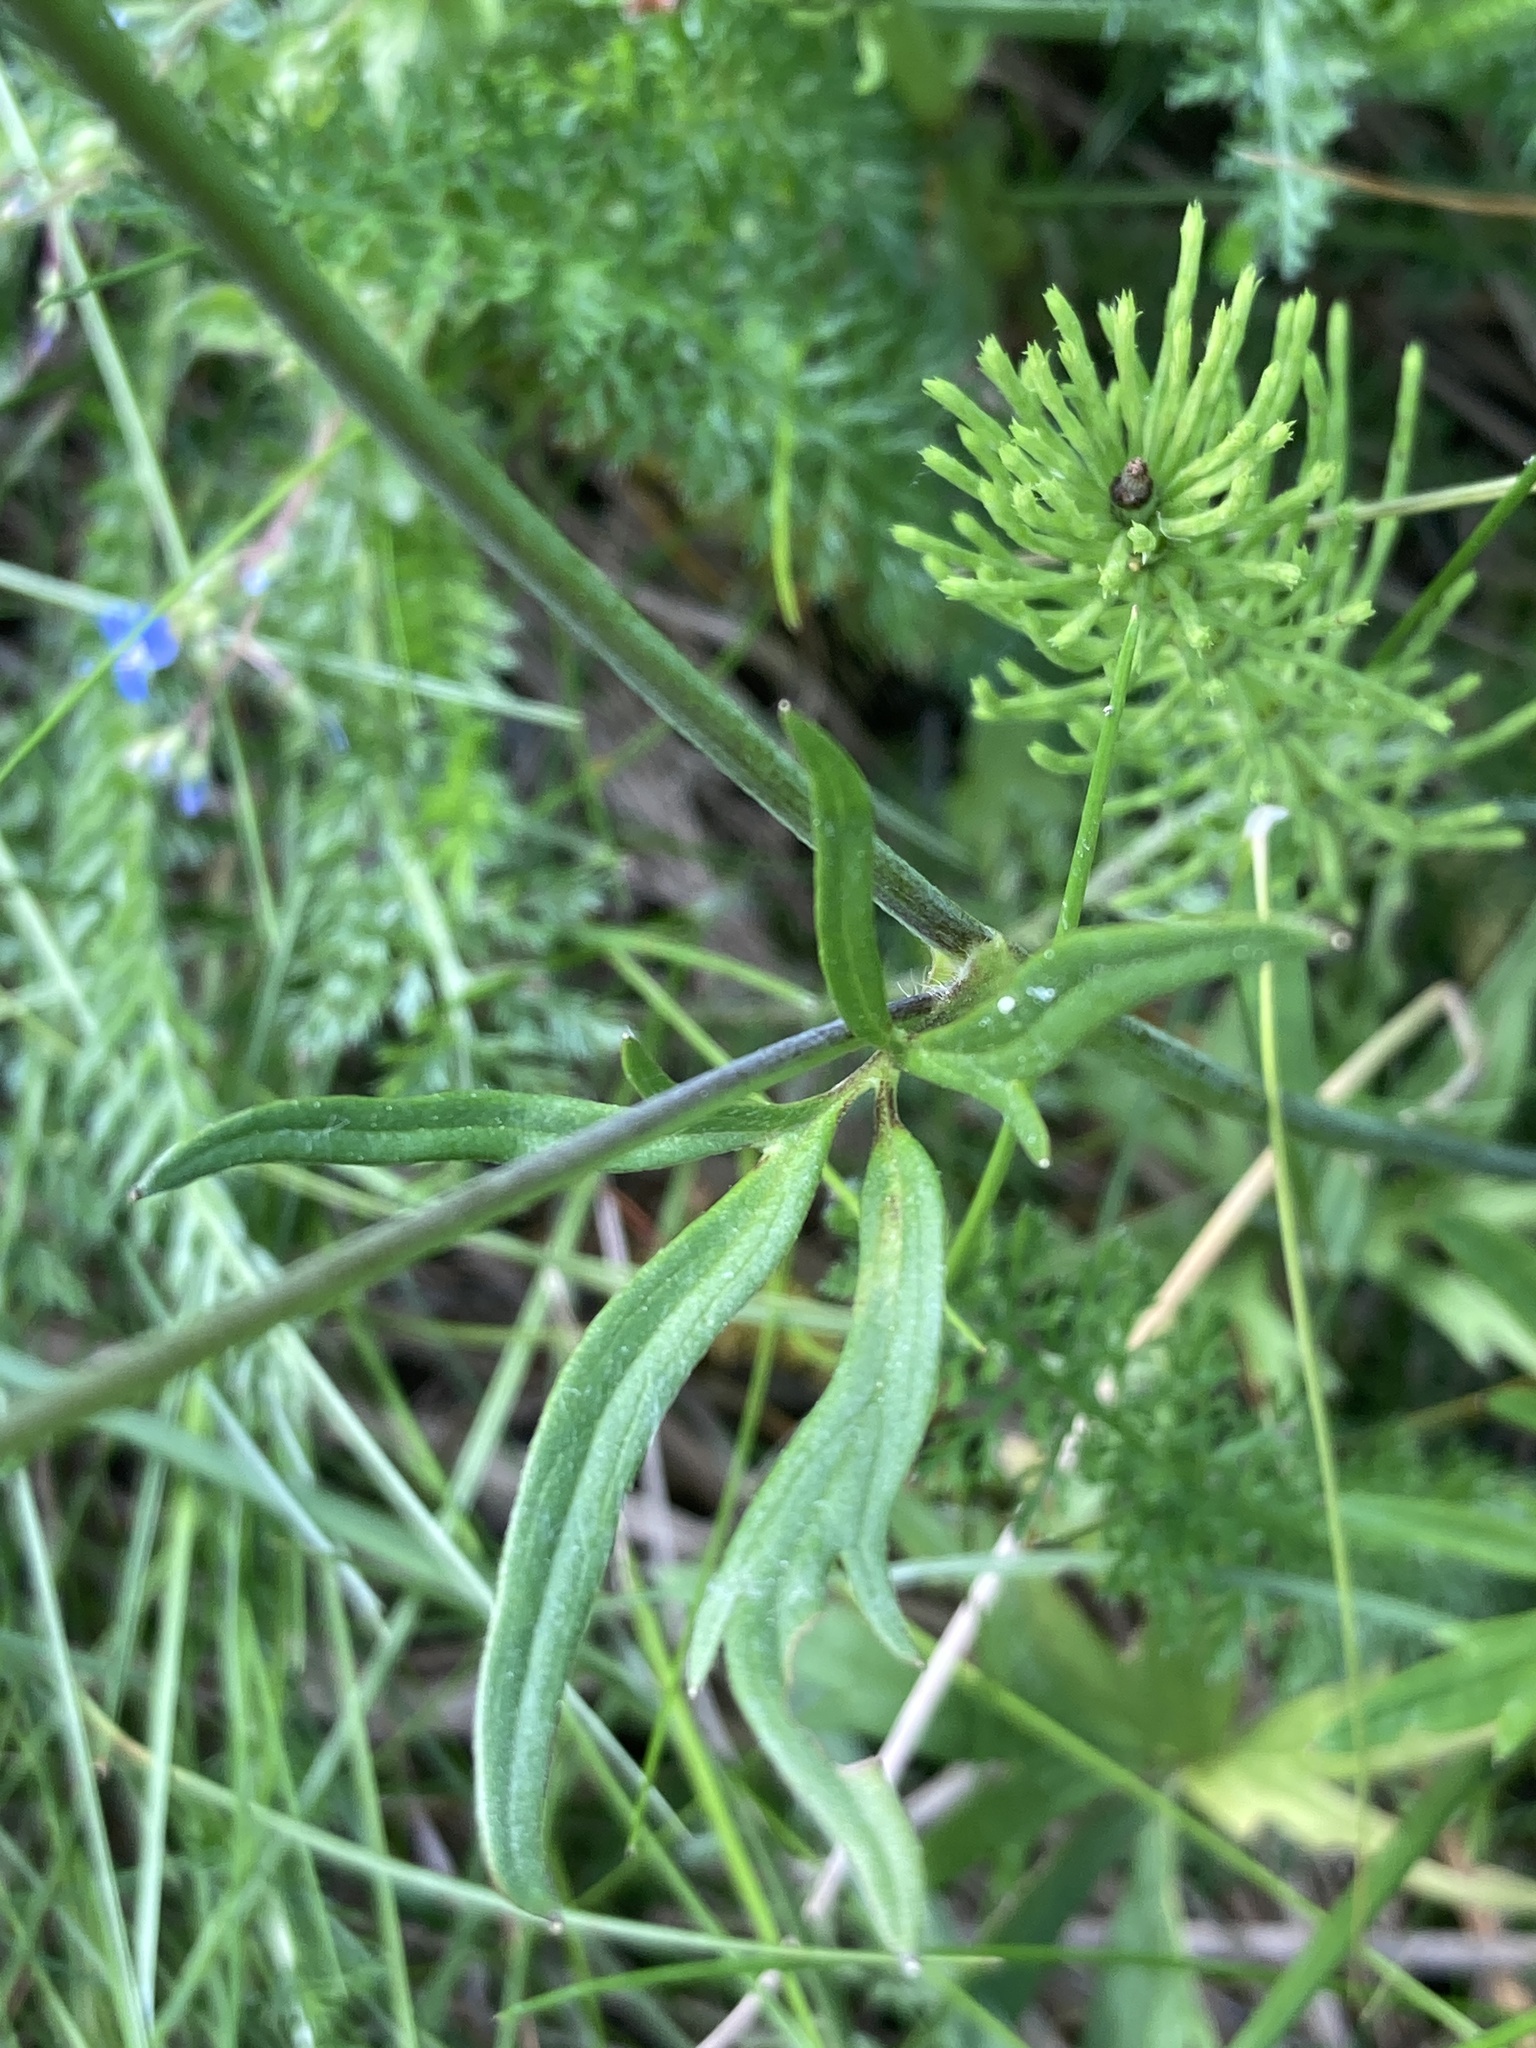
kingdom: Plantae
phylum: Tracheophyta
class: Magnoliopsida
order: Ranunculales
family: Ranunculaceae
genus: Ranunculus
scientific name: Ranunculus acris
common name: Meadow buttercup
